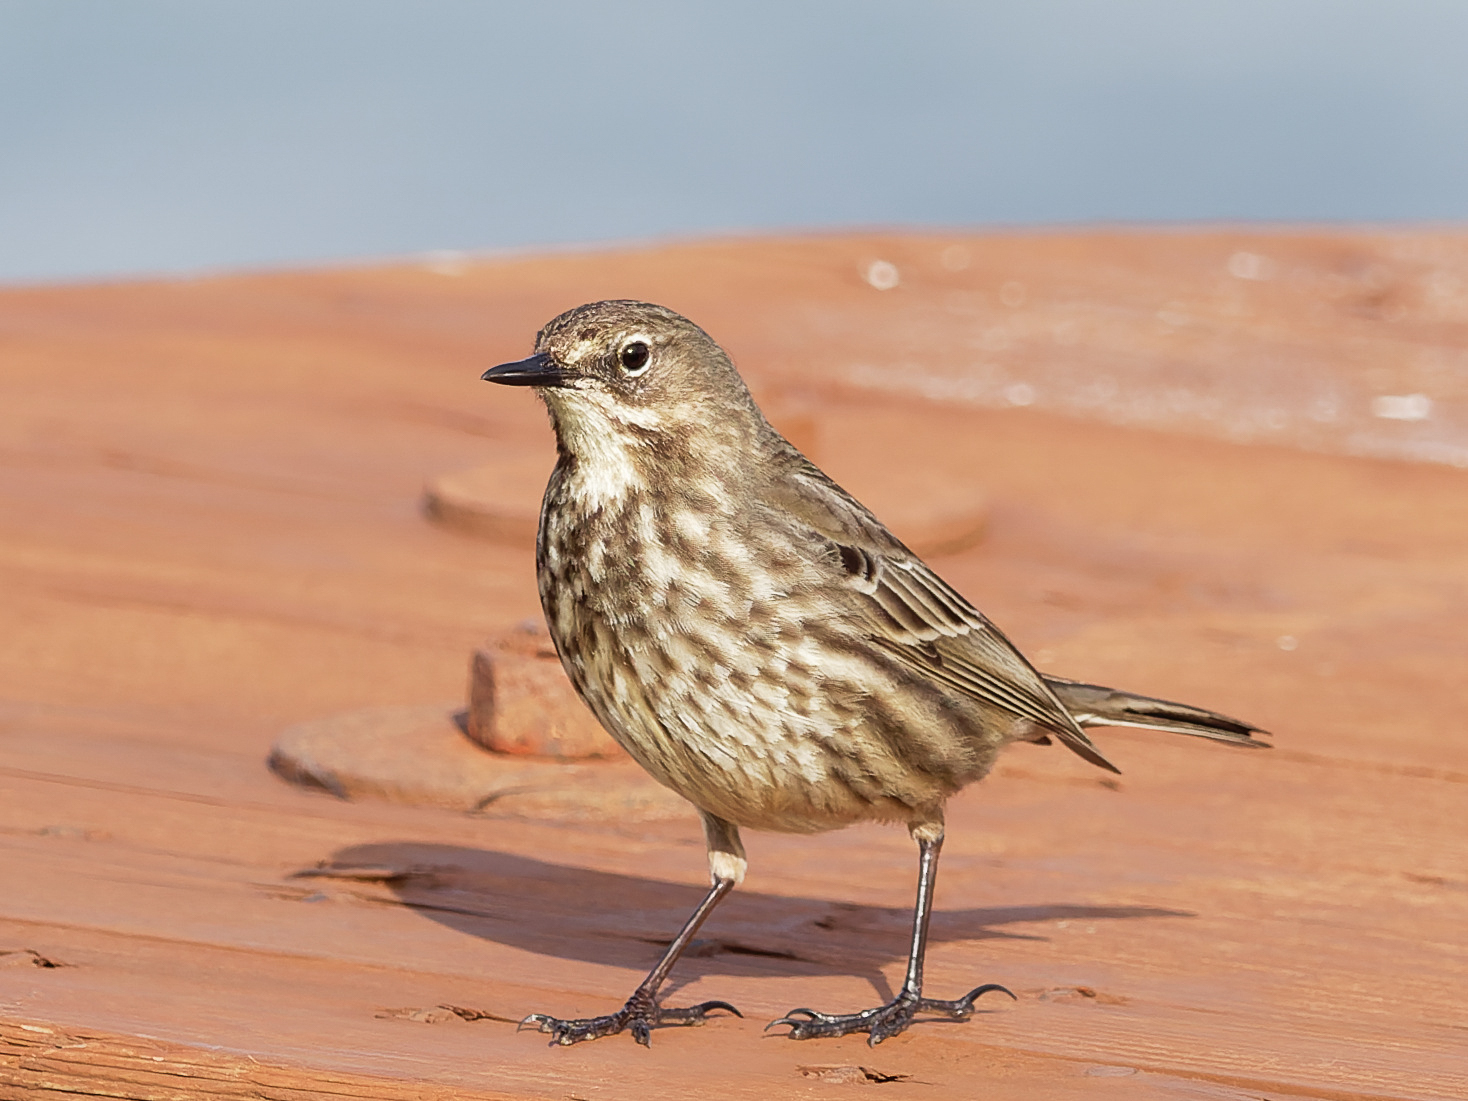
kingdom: Animalia
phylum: Chordata
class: Aves
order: Passeriformes
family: Motacillidae
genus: Anthus
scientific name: Anthus petrosus
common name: Eurasian rock pipit
